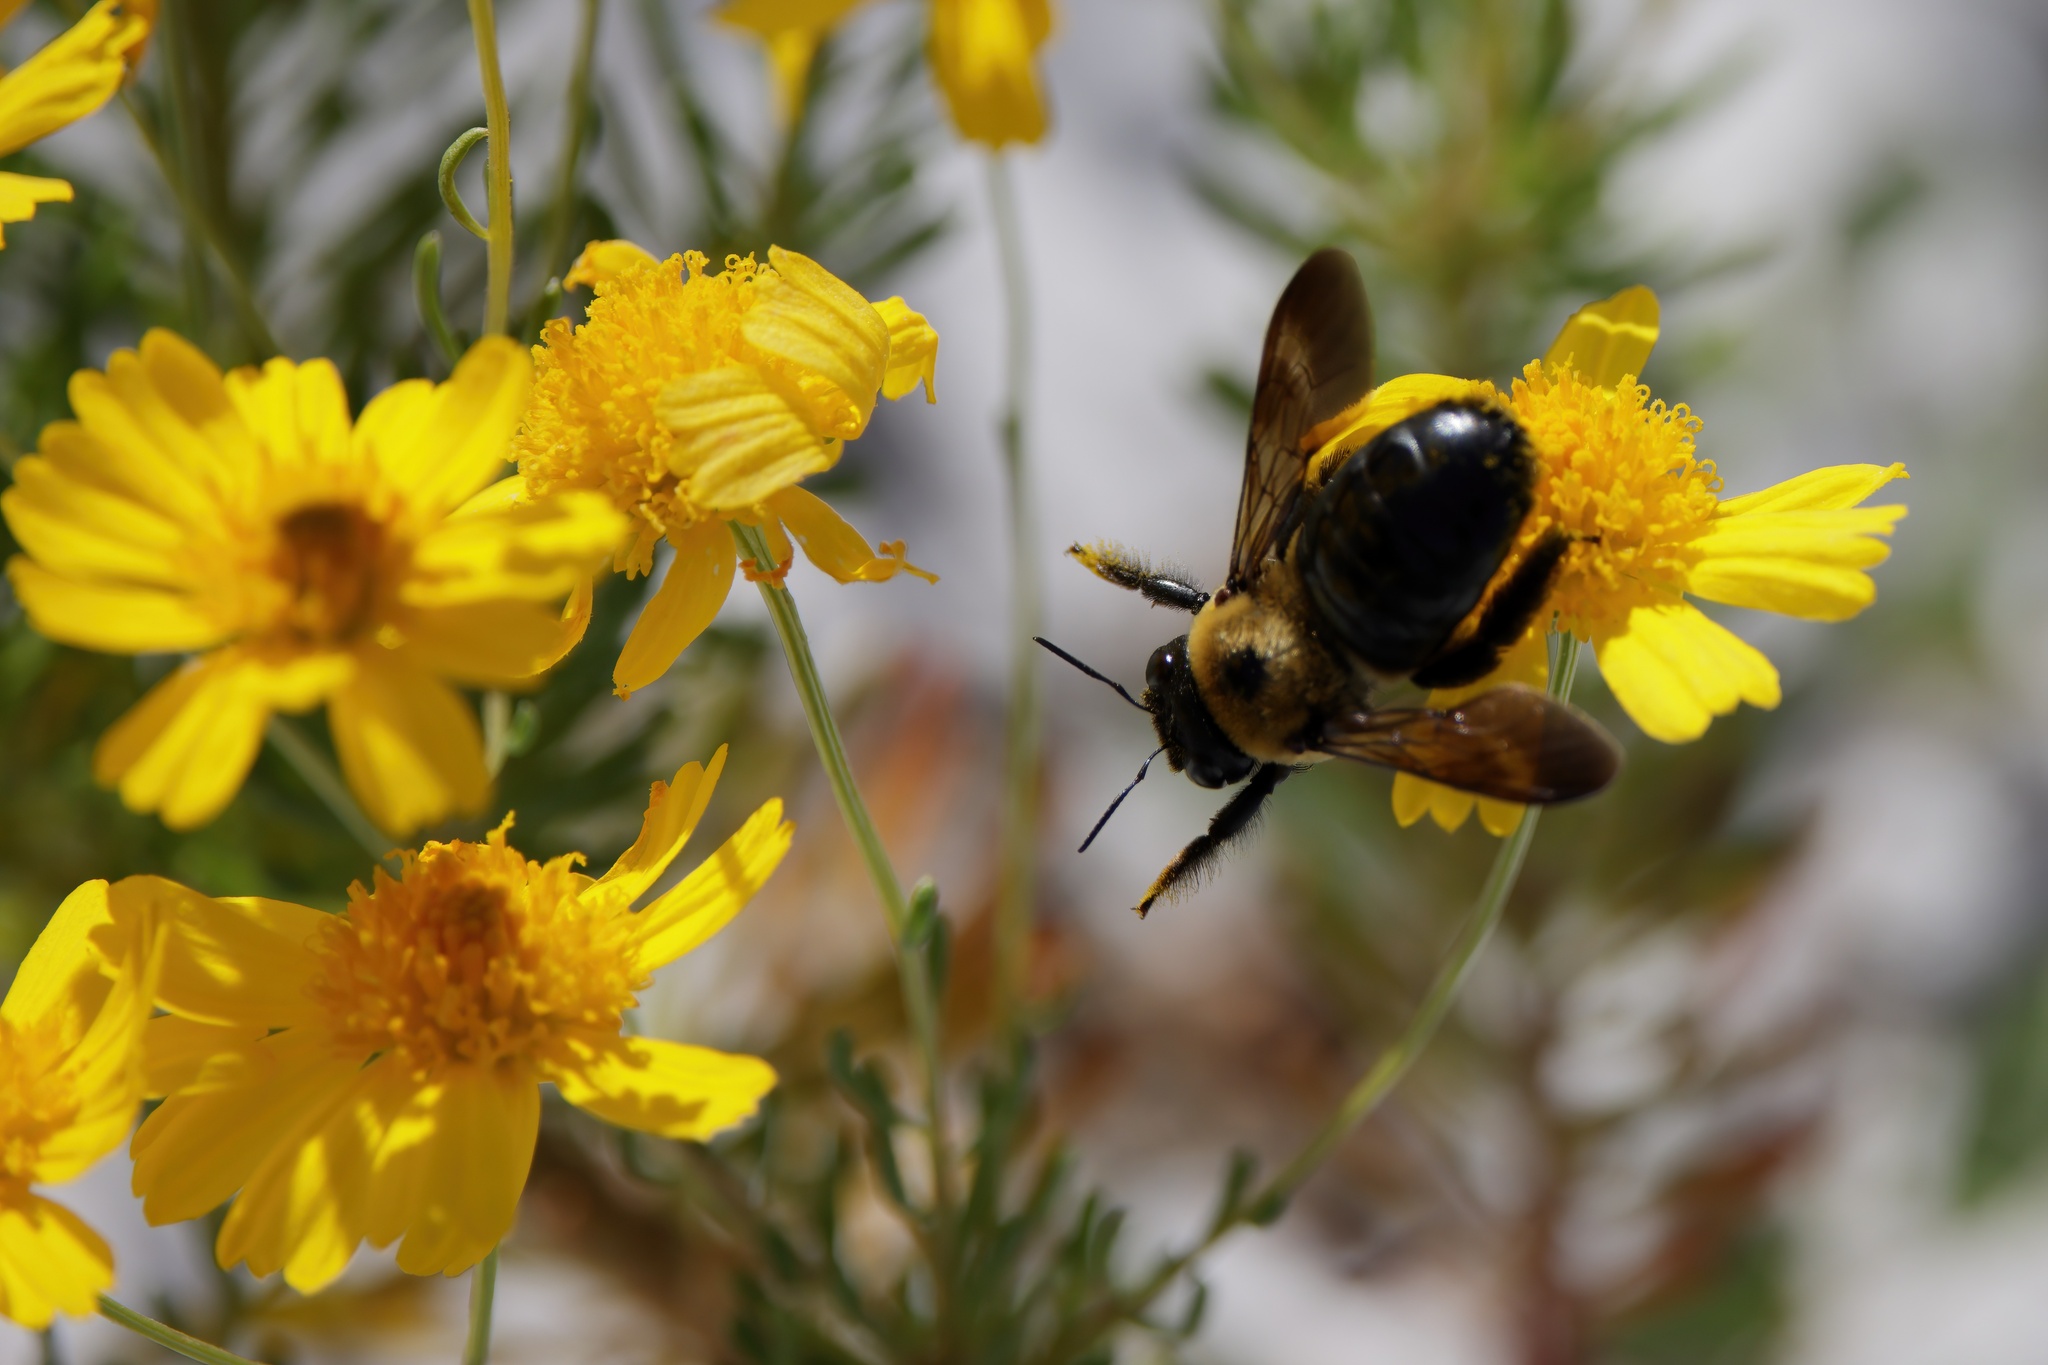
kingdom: Animalia
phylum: Arthropoda
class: Insecta
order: Hymenoptera
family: Apidae
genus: Xylocopa
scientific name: Xylocopa virginica
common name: Carpenter bee
